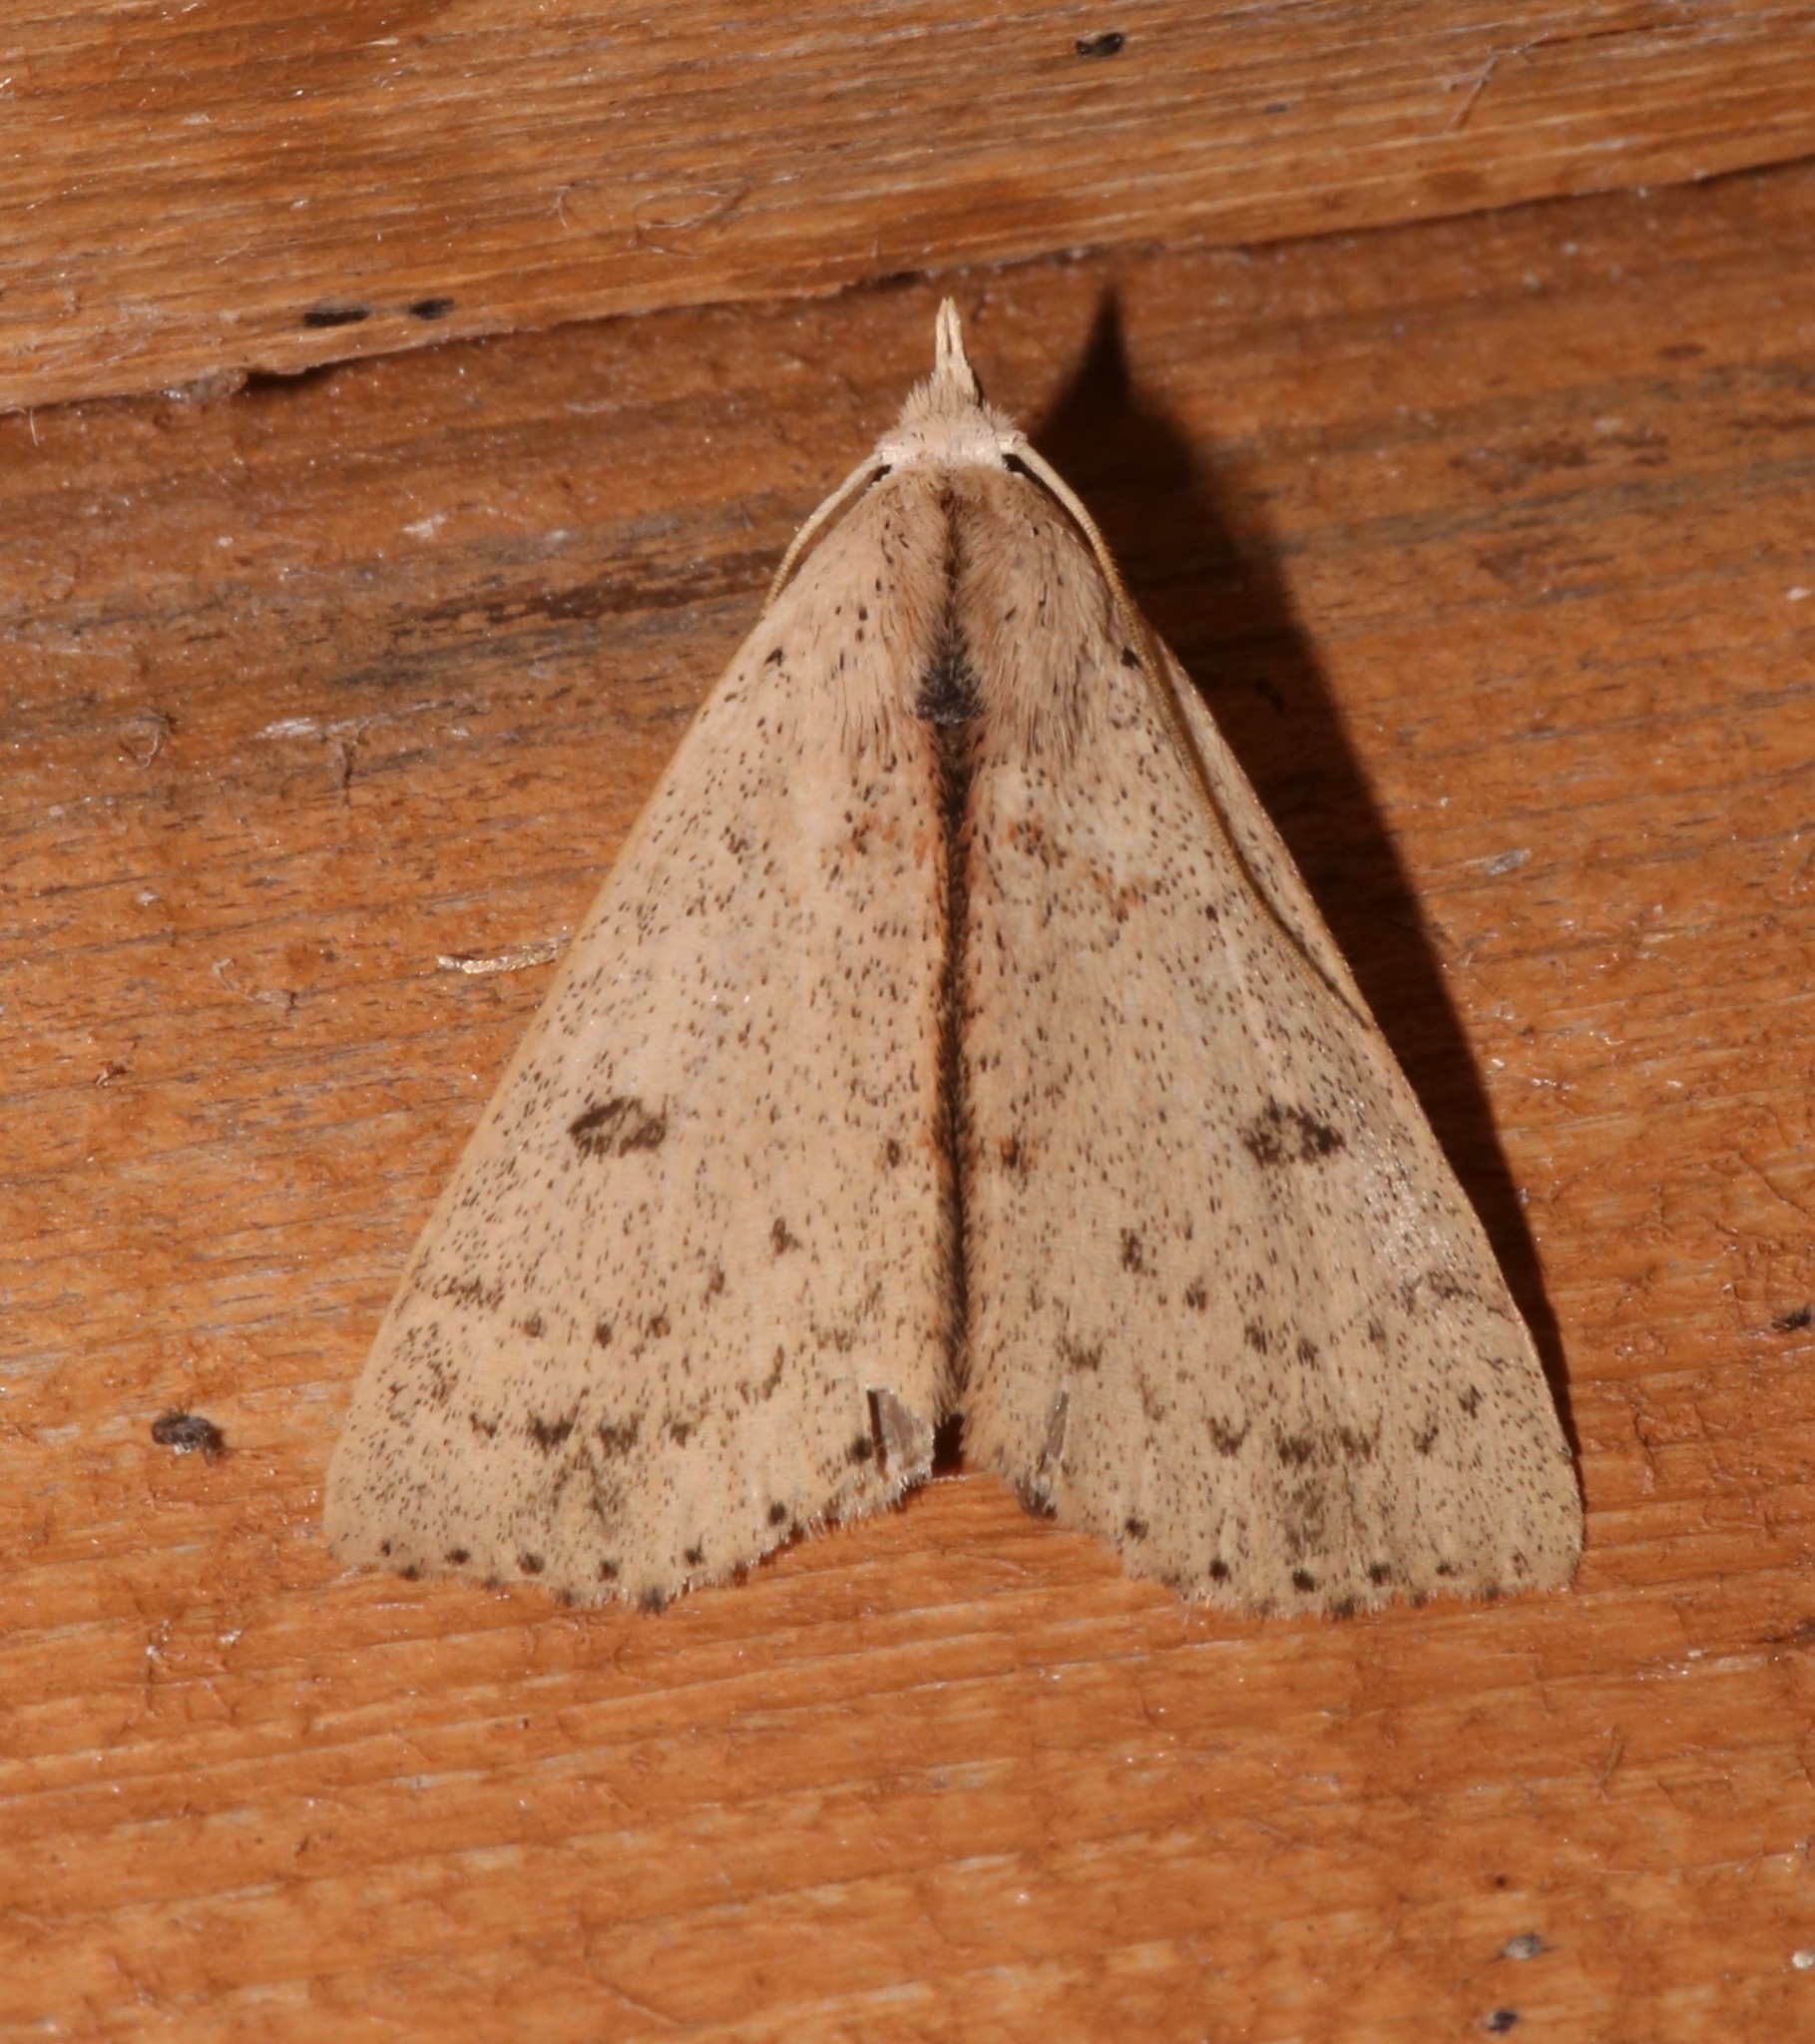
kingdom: Animalia
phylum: Arthropoda
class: Insecta
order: Lepidoptera
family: Erebidae
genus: Scolecocampa
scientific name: Scolecocampa liburna
